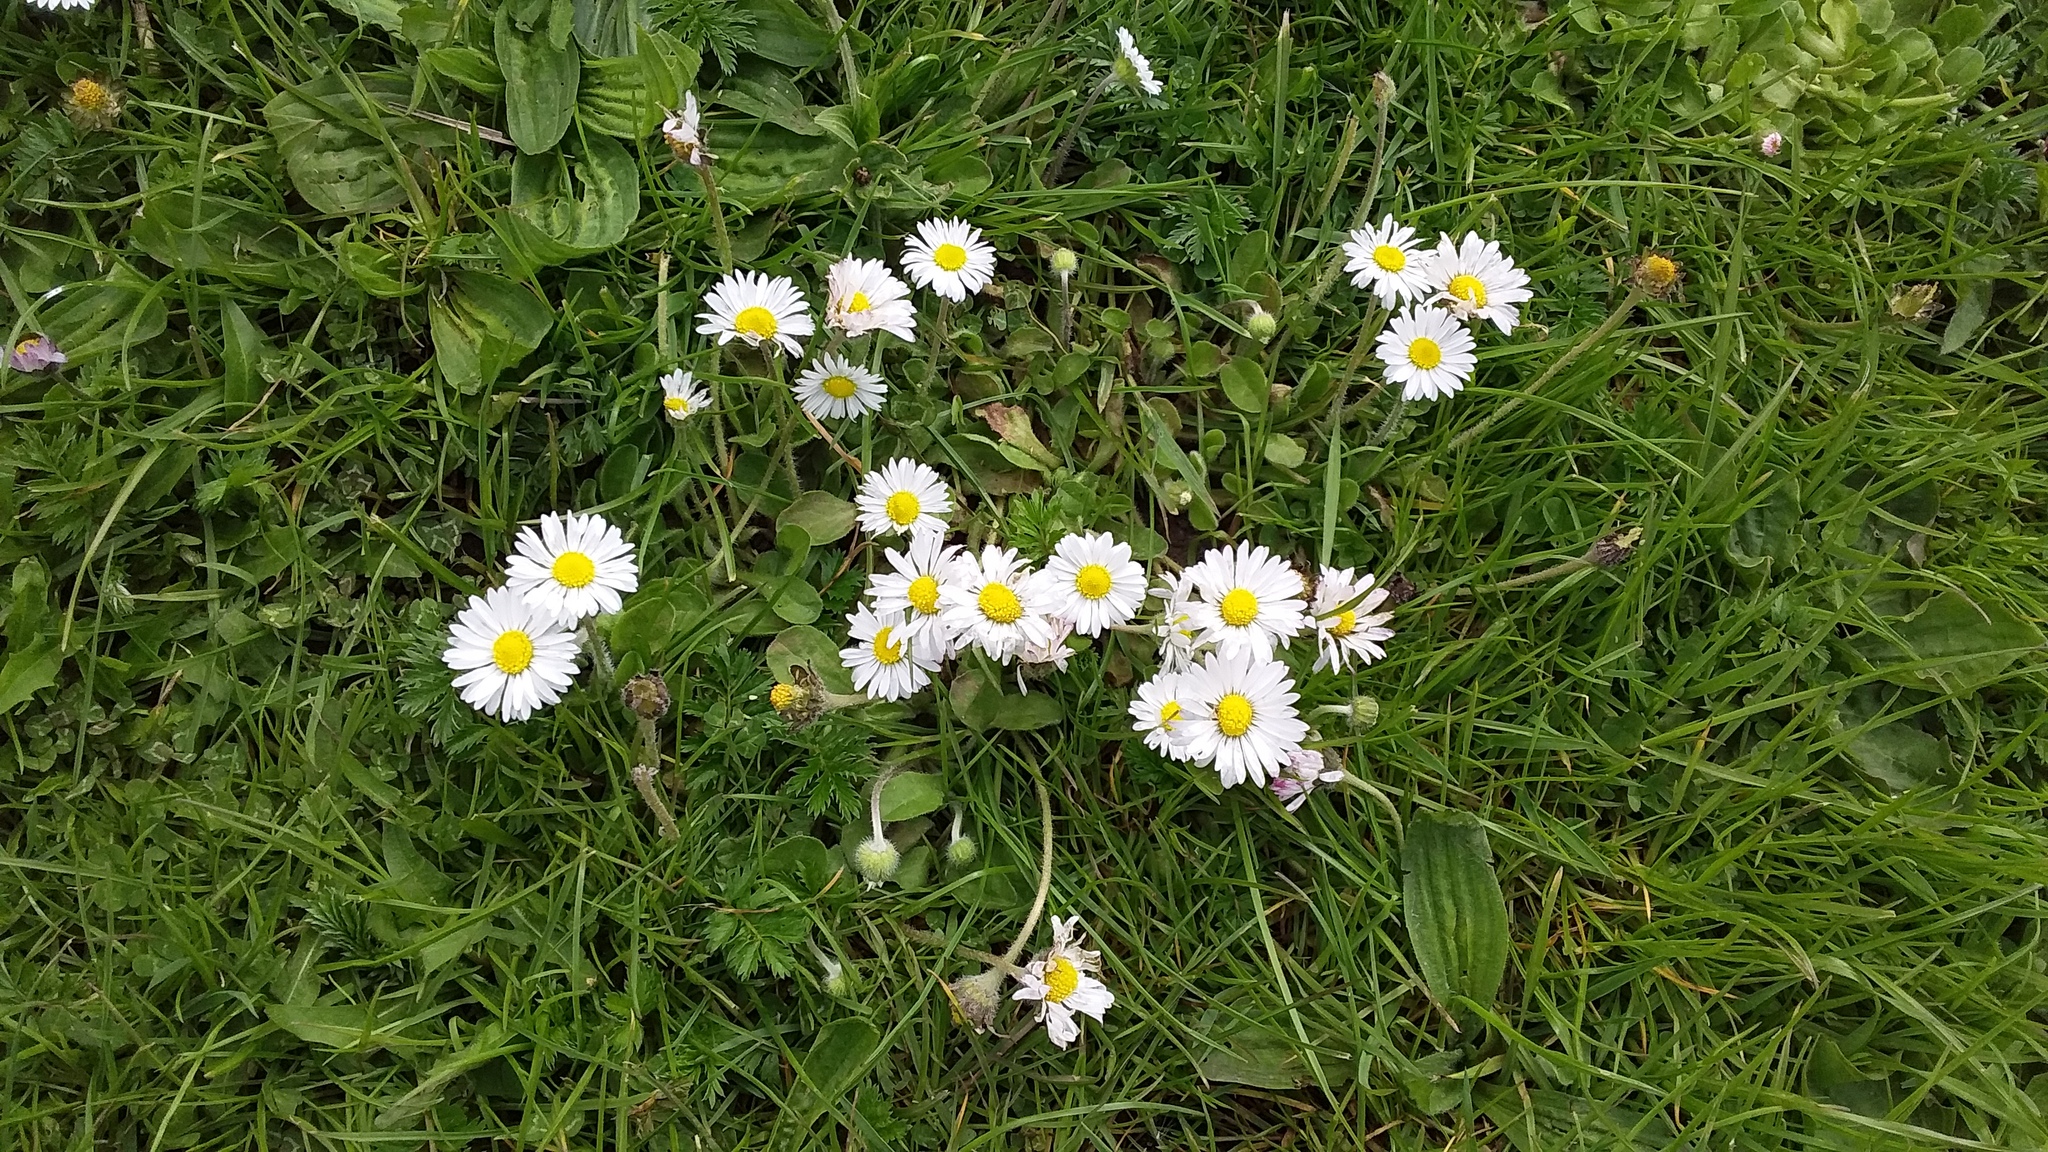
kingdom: Plantae
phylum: Tracheophyta
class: Magnoliopsida
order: Asterales
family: Asteraceae
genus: Bellis
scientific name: Bellis perennis
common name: Lawndaisy
